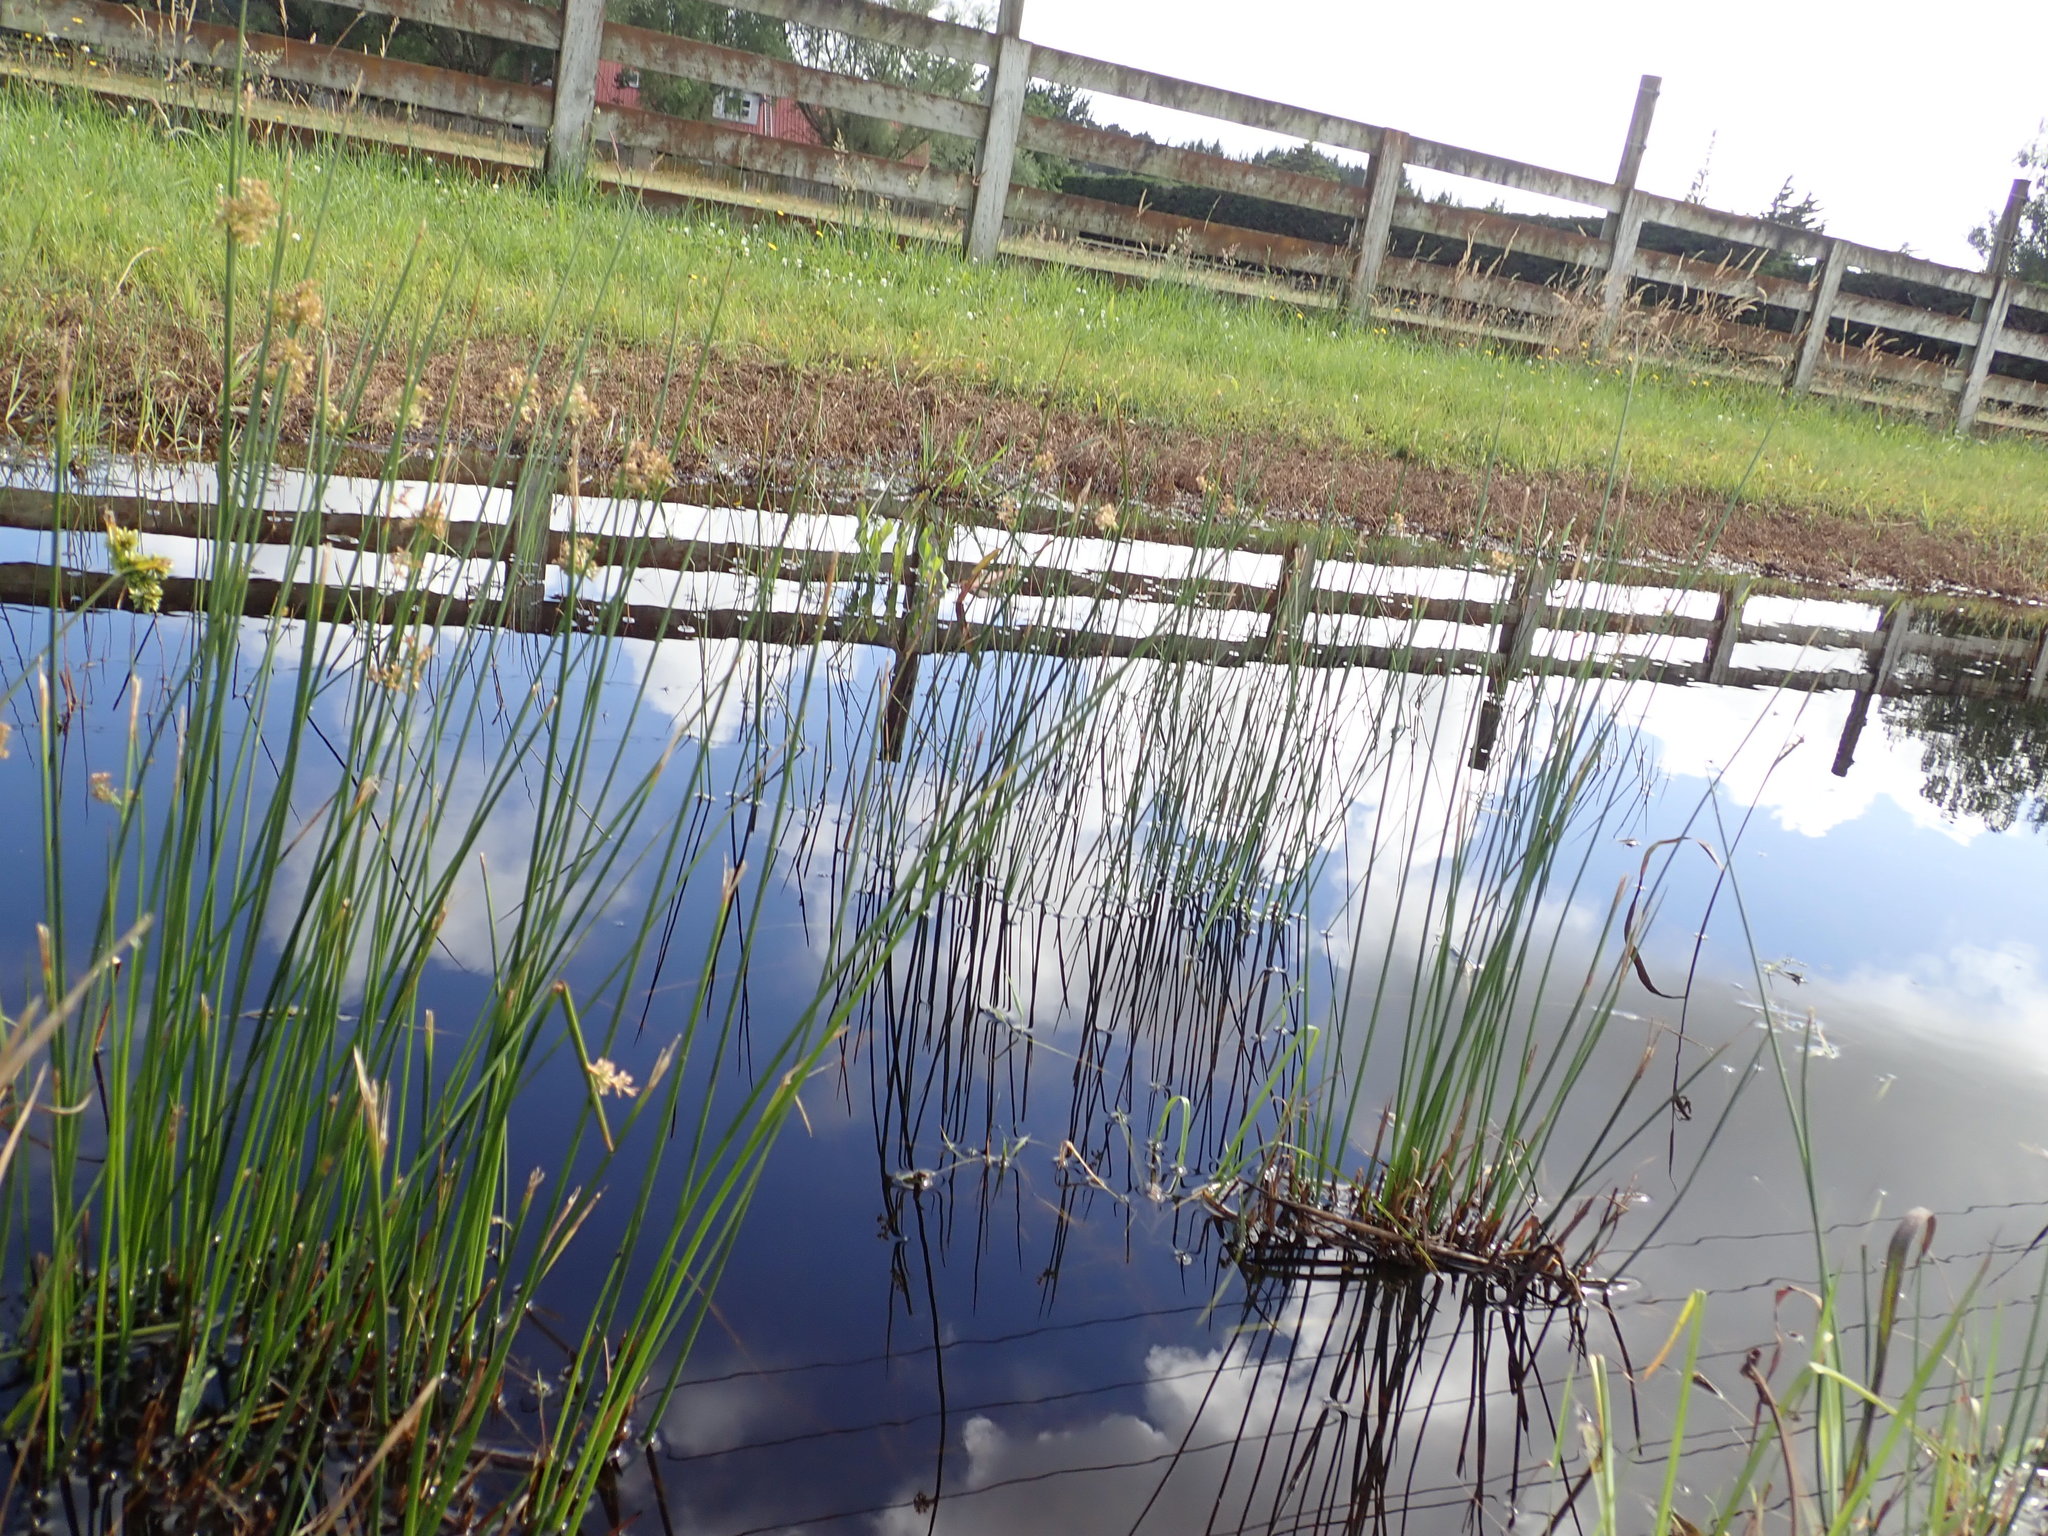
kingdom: Plantae
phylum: Tracheophyta
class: Liliopsida
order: Poales
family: Juncaceae
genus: Juncus
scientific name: Juncus effusus
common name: Soft rush
